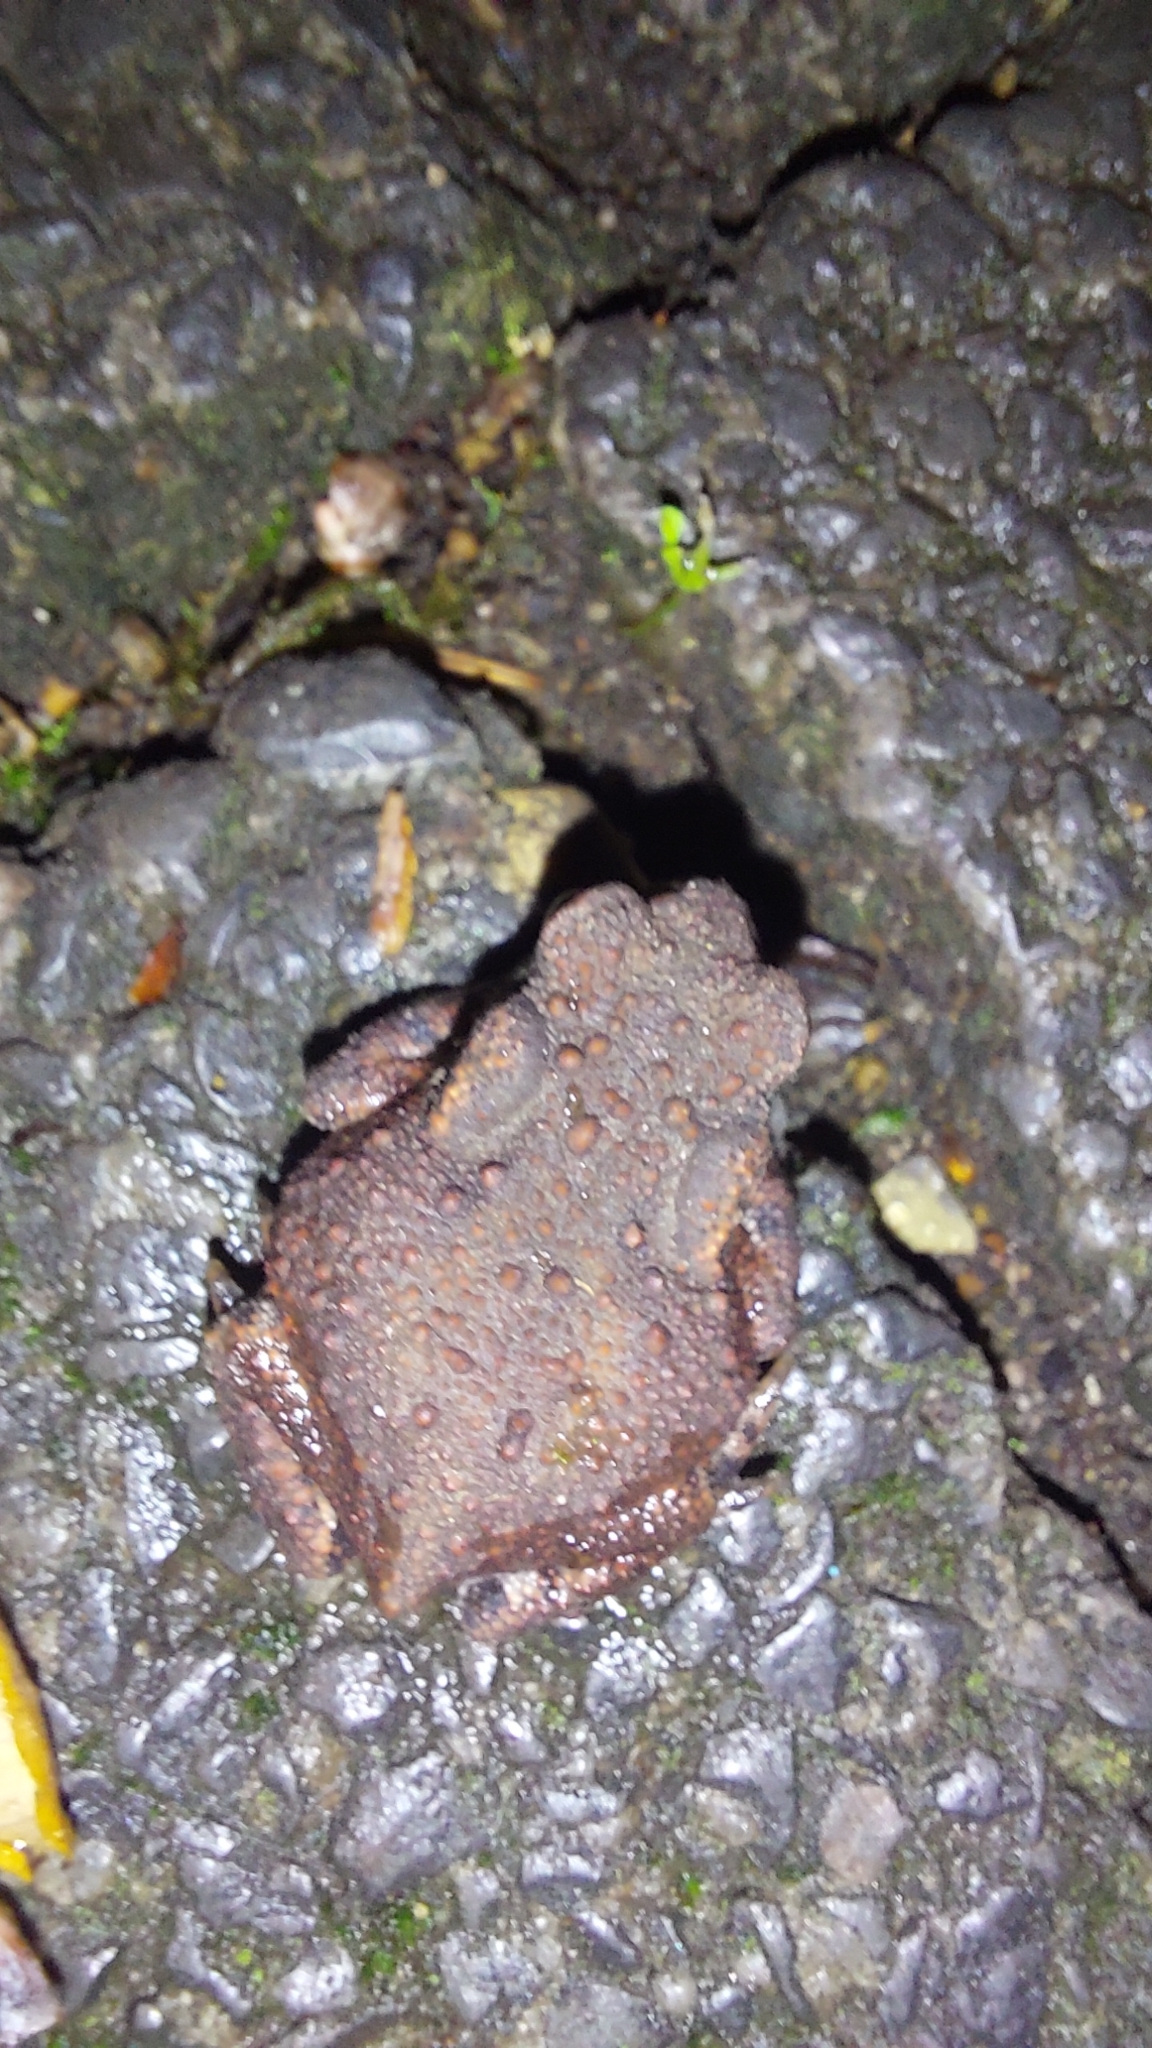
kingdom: Animalia
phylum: Chordata
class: Amphibia
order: Anura
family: Bufonidae
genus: Bufo
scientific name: Bufo bufo
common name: Common toad
